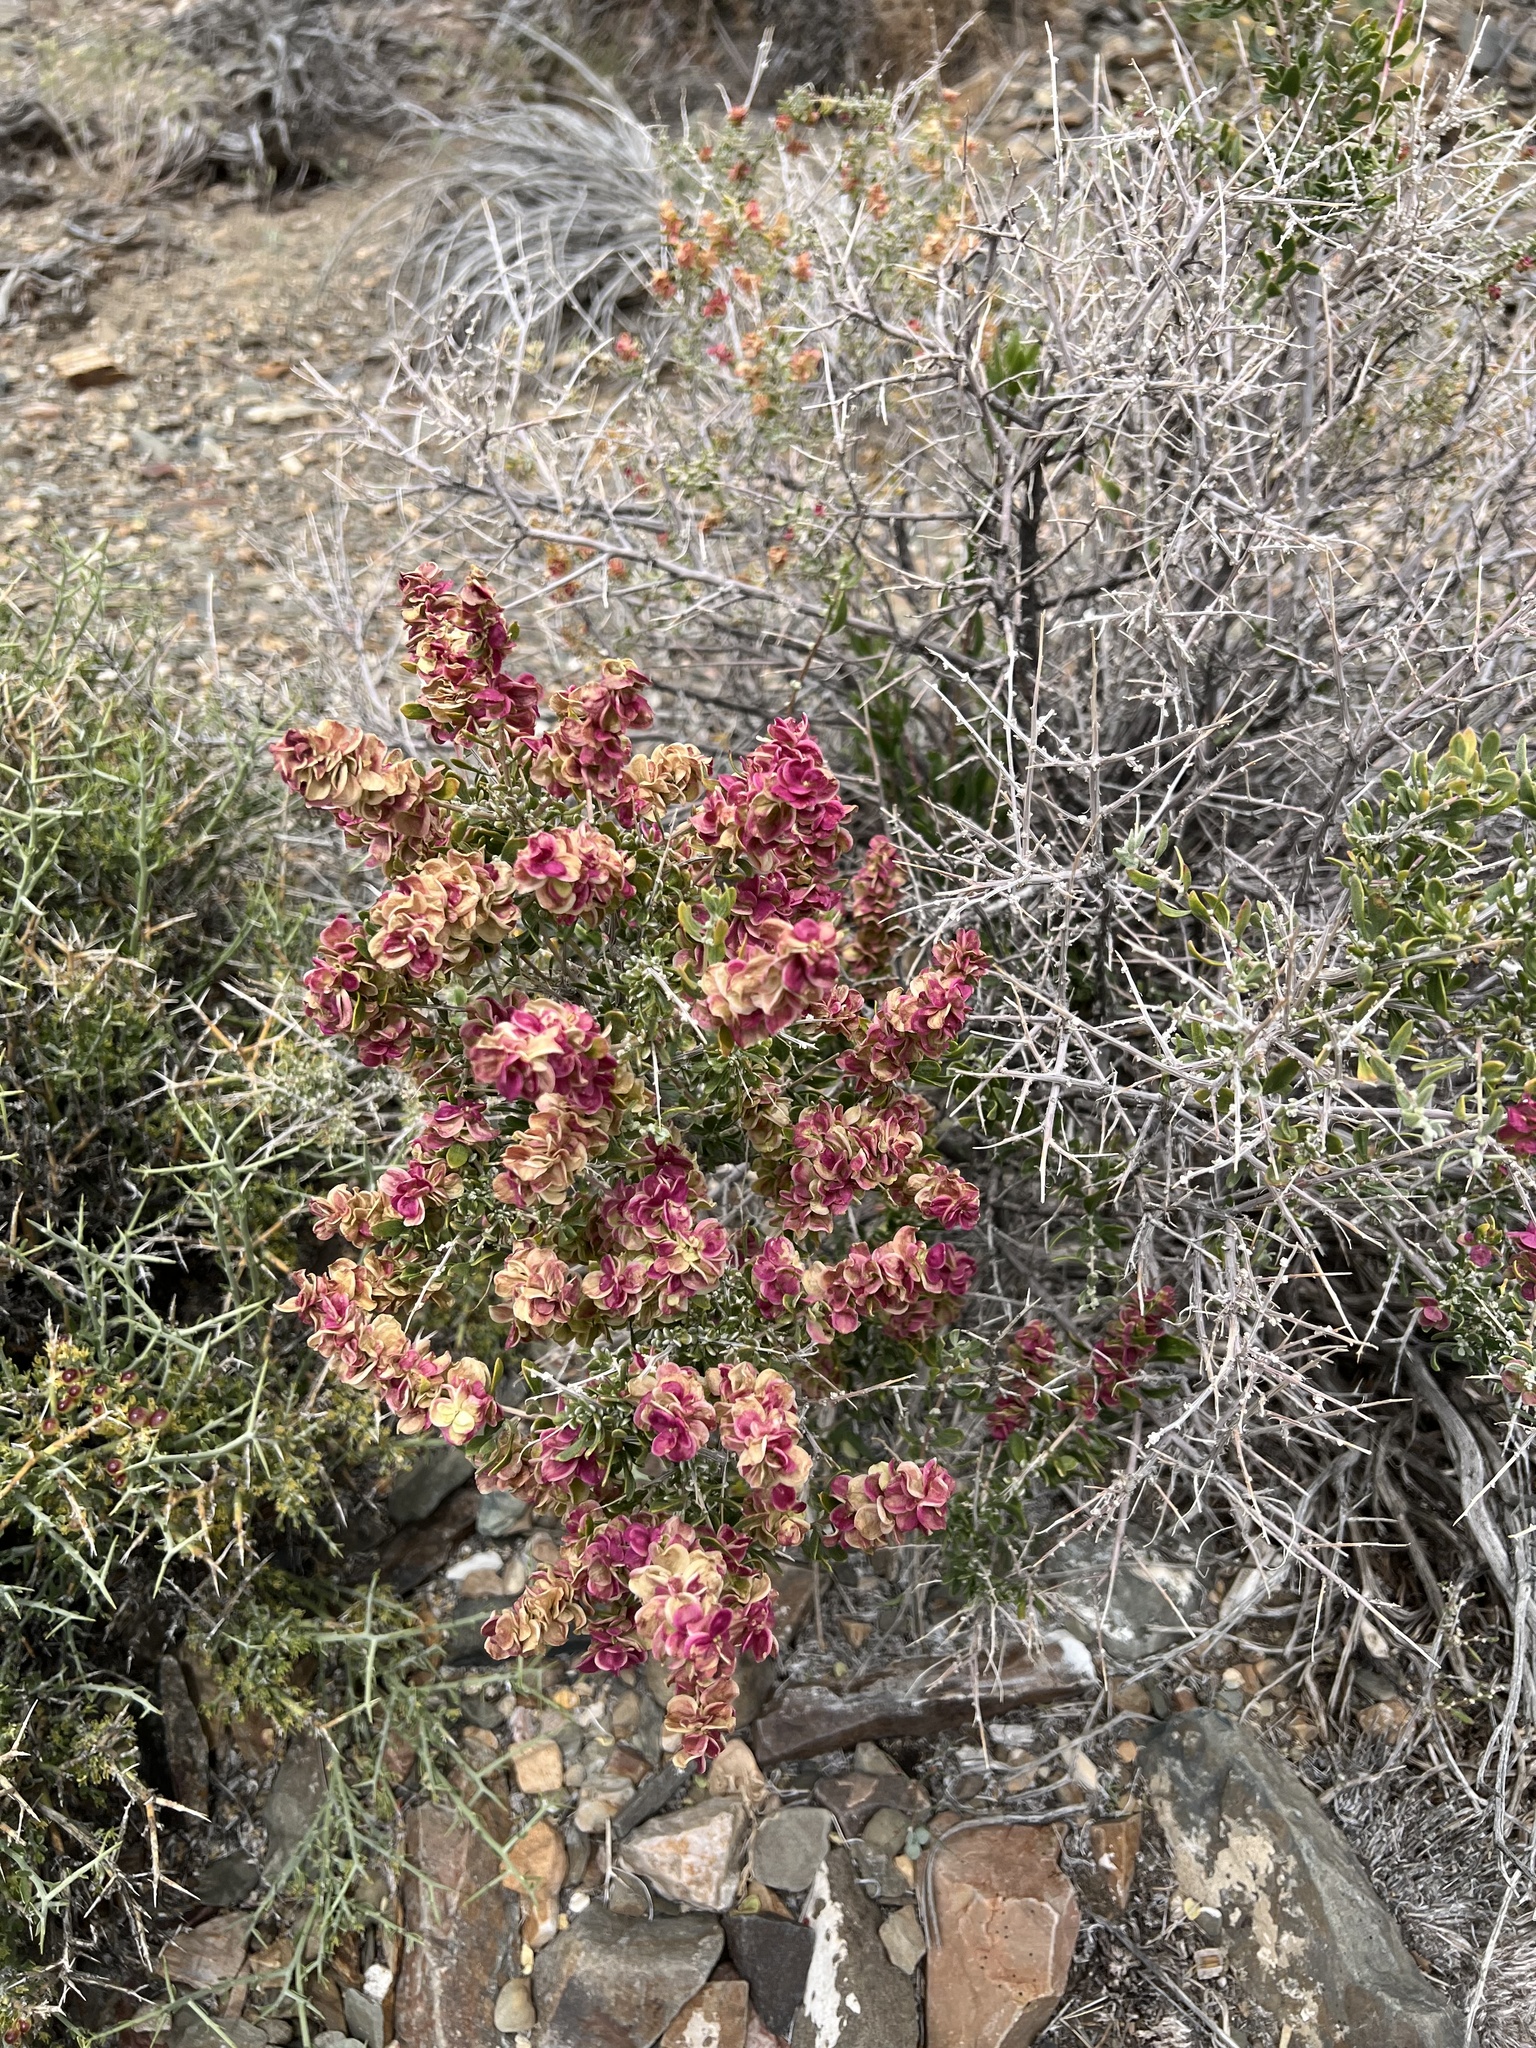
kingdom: Plantae
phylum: Tracheophyta
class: Magnoliopsida
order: Caryophyllales
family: Amaranthaceae
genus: Grayia
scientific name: Grayia spinosa
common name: Spiny hopsage
